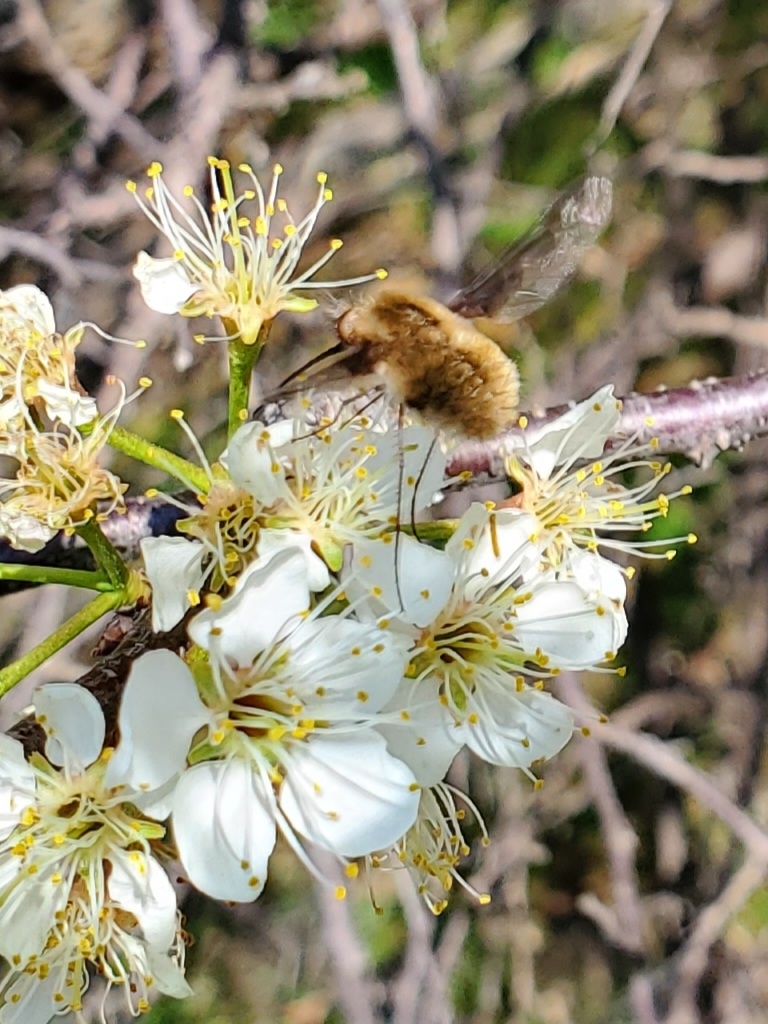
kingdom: Animalia
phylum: Arthropoda
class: Insecta
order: Diptera
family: Bombyliidae
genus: Bombylius
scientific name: Bombylius major
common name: Bee fly
